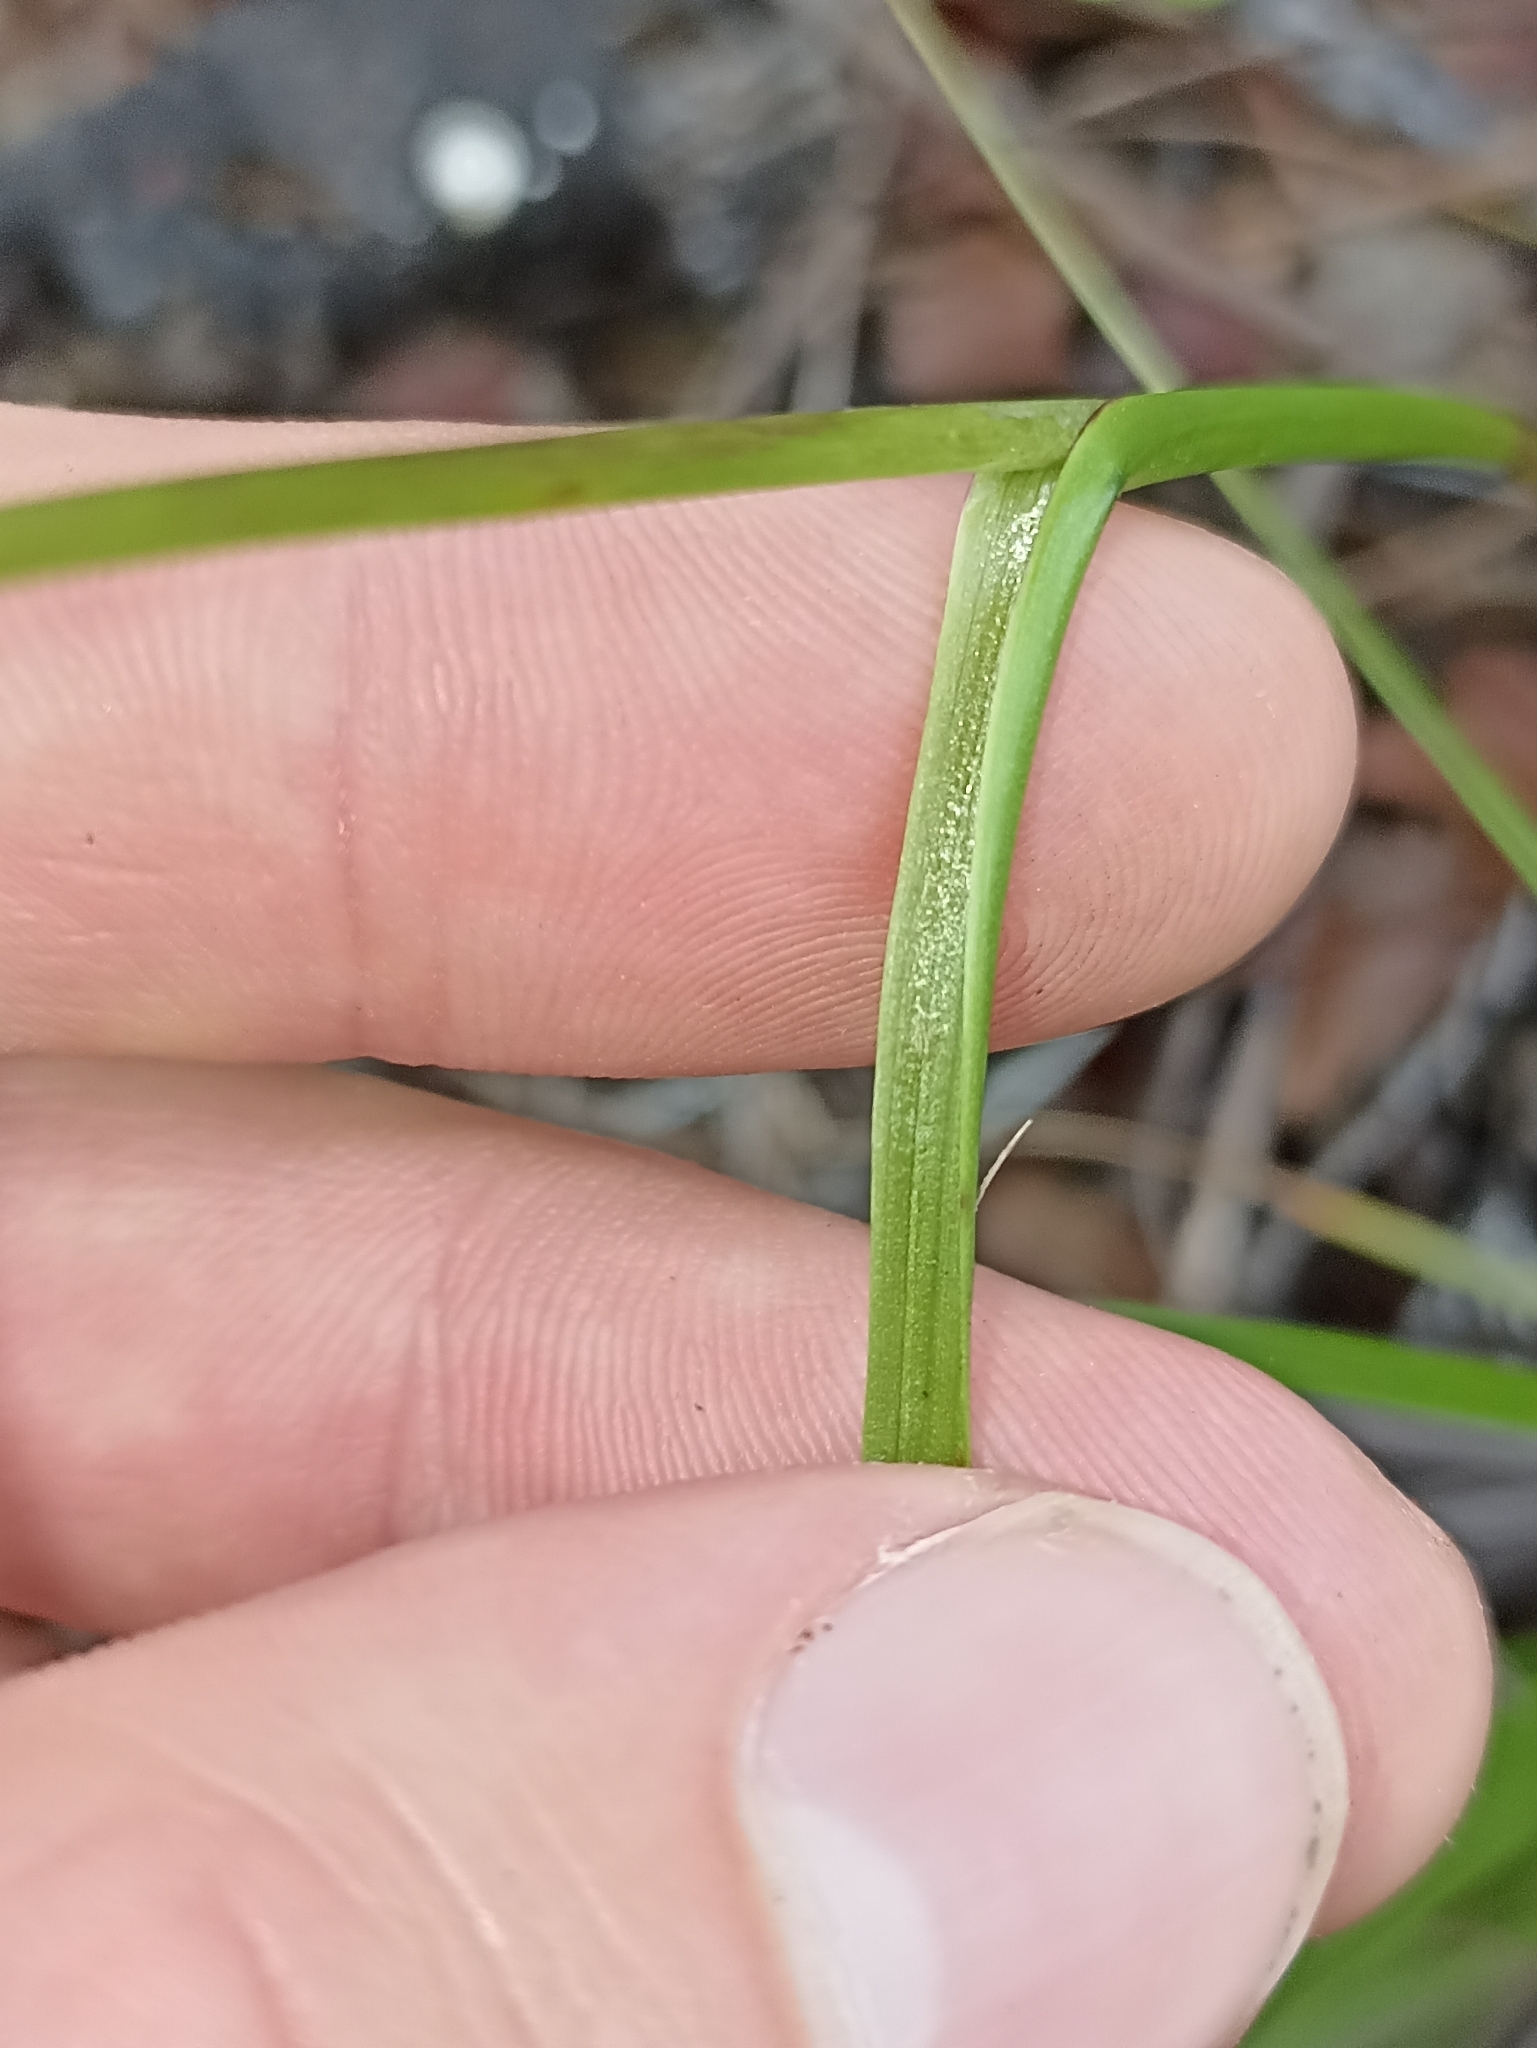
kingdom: Plantae
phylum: Tracheophyta
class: Liliopsida
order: Asparagales
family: Orchidaceae
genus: Orthoceras
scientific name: Orthoceras novae-zeelandiae
